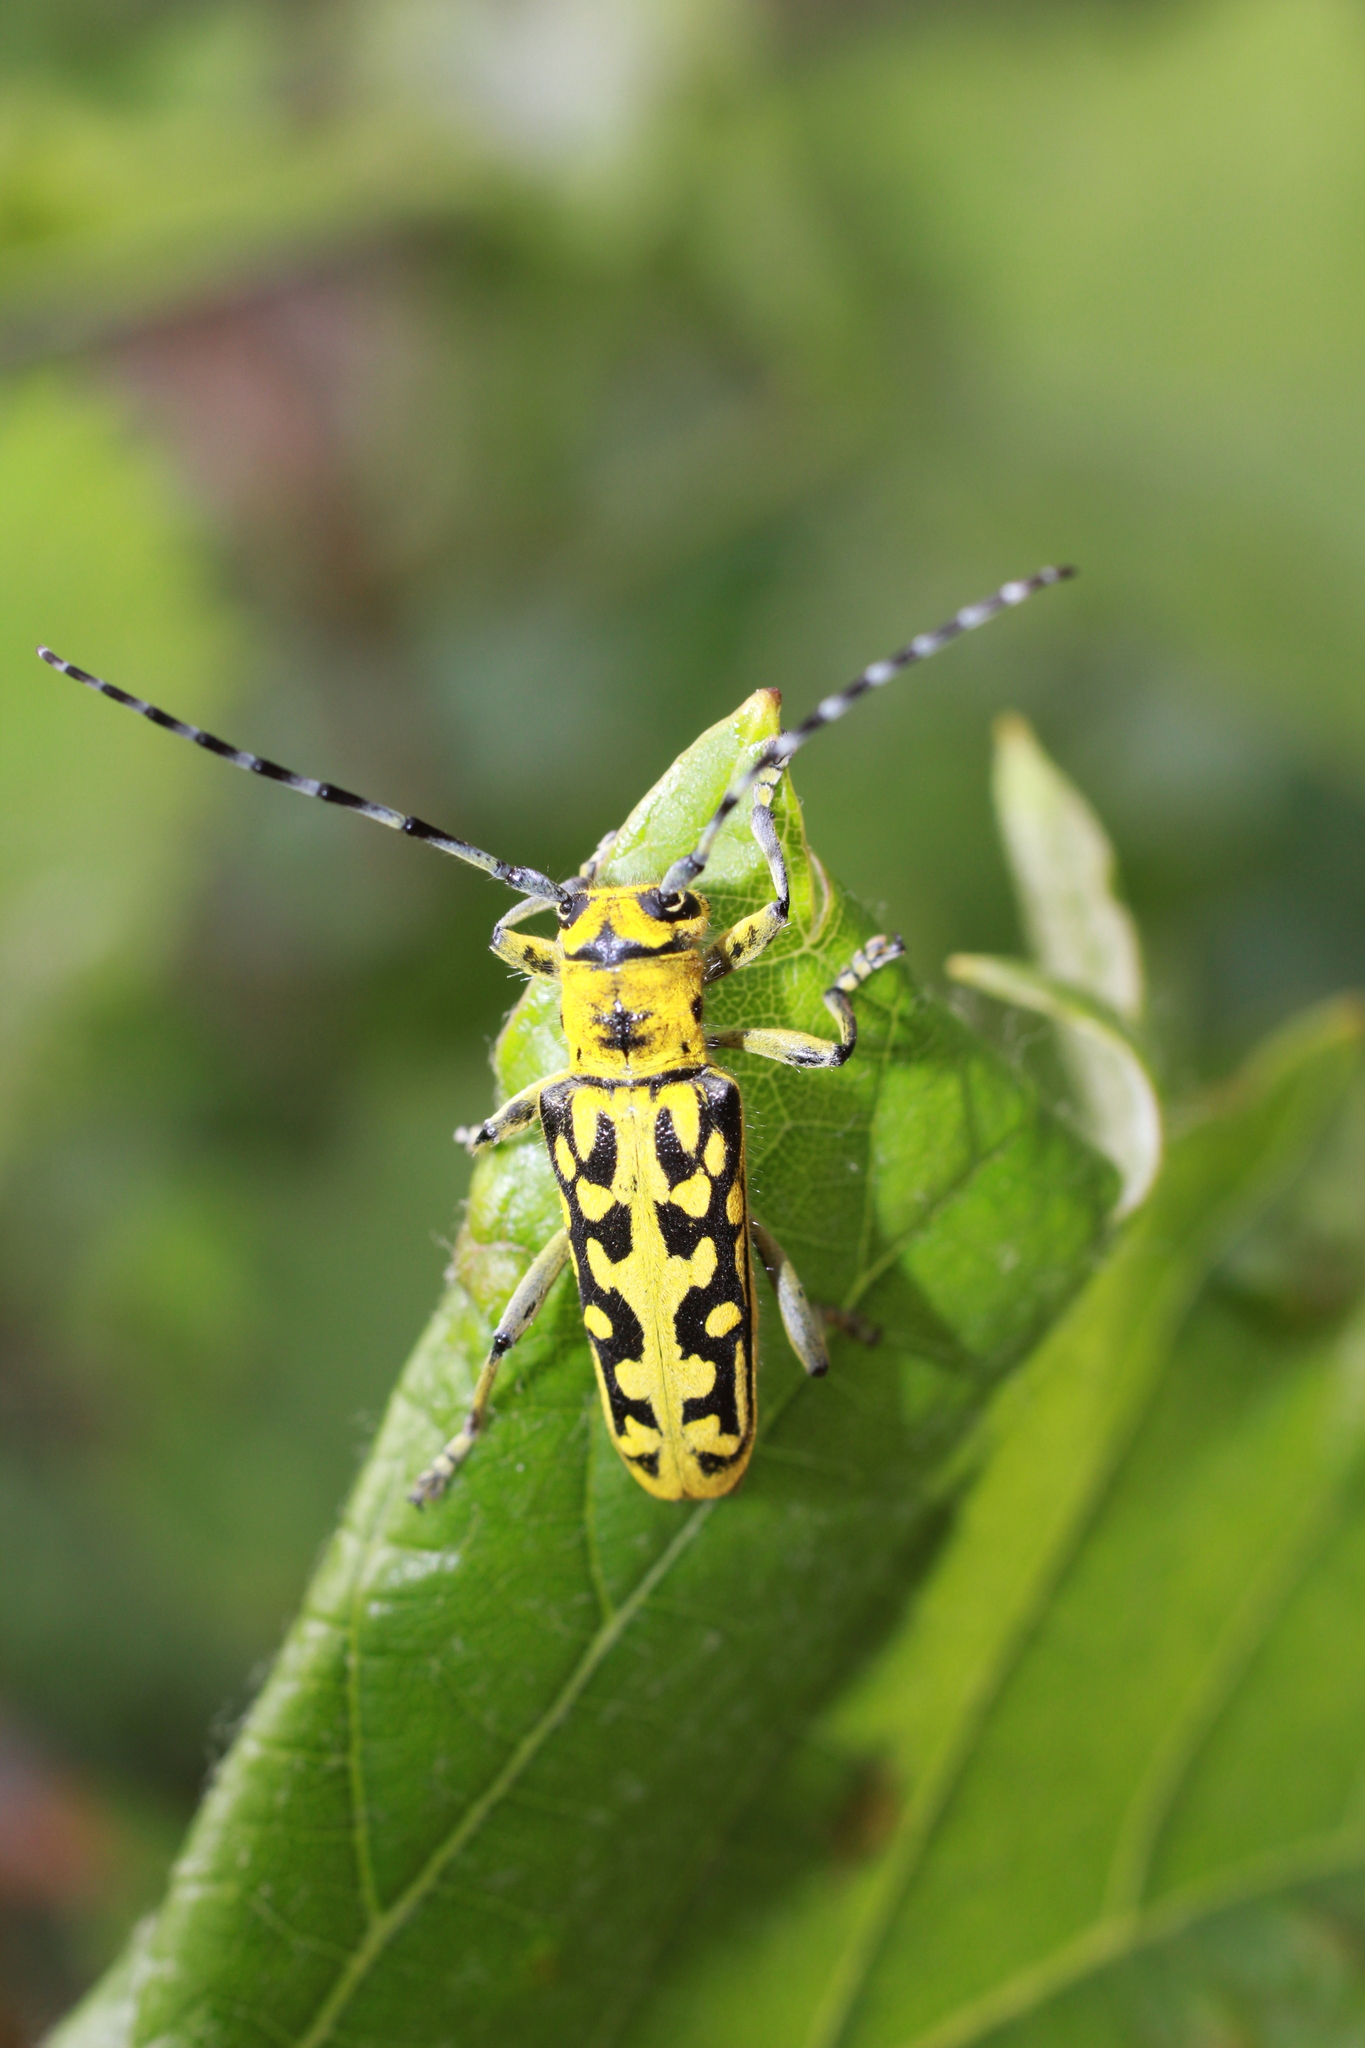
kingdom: Animalia
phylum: Arthropoda
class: Insecta
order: Coleoptera
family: Cerambycidae
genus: Saperda
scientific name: Saperda scalaris
